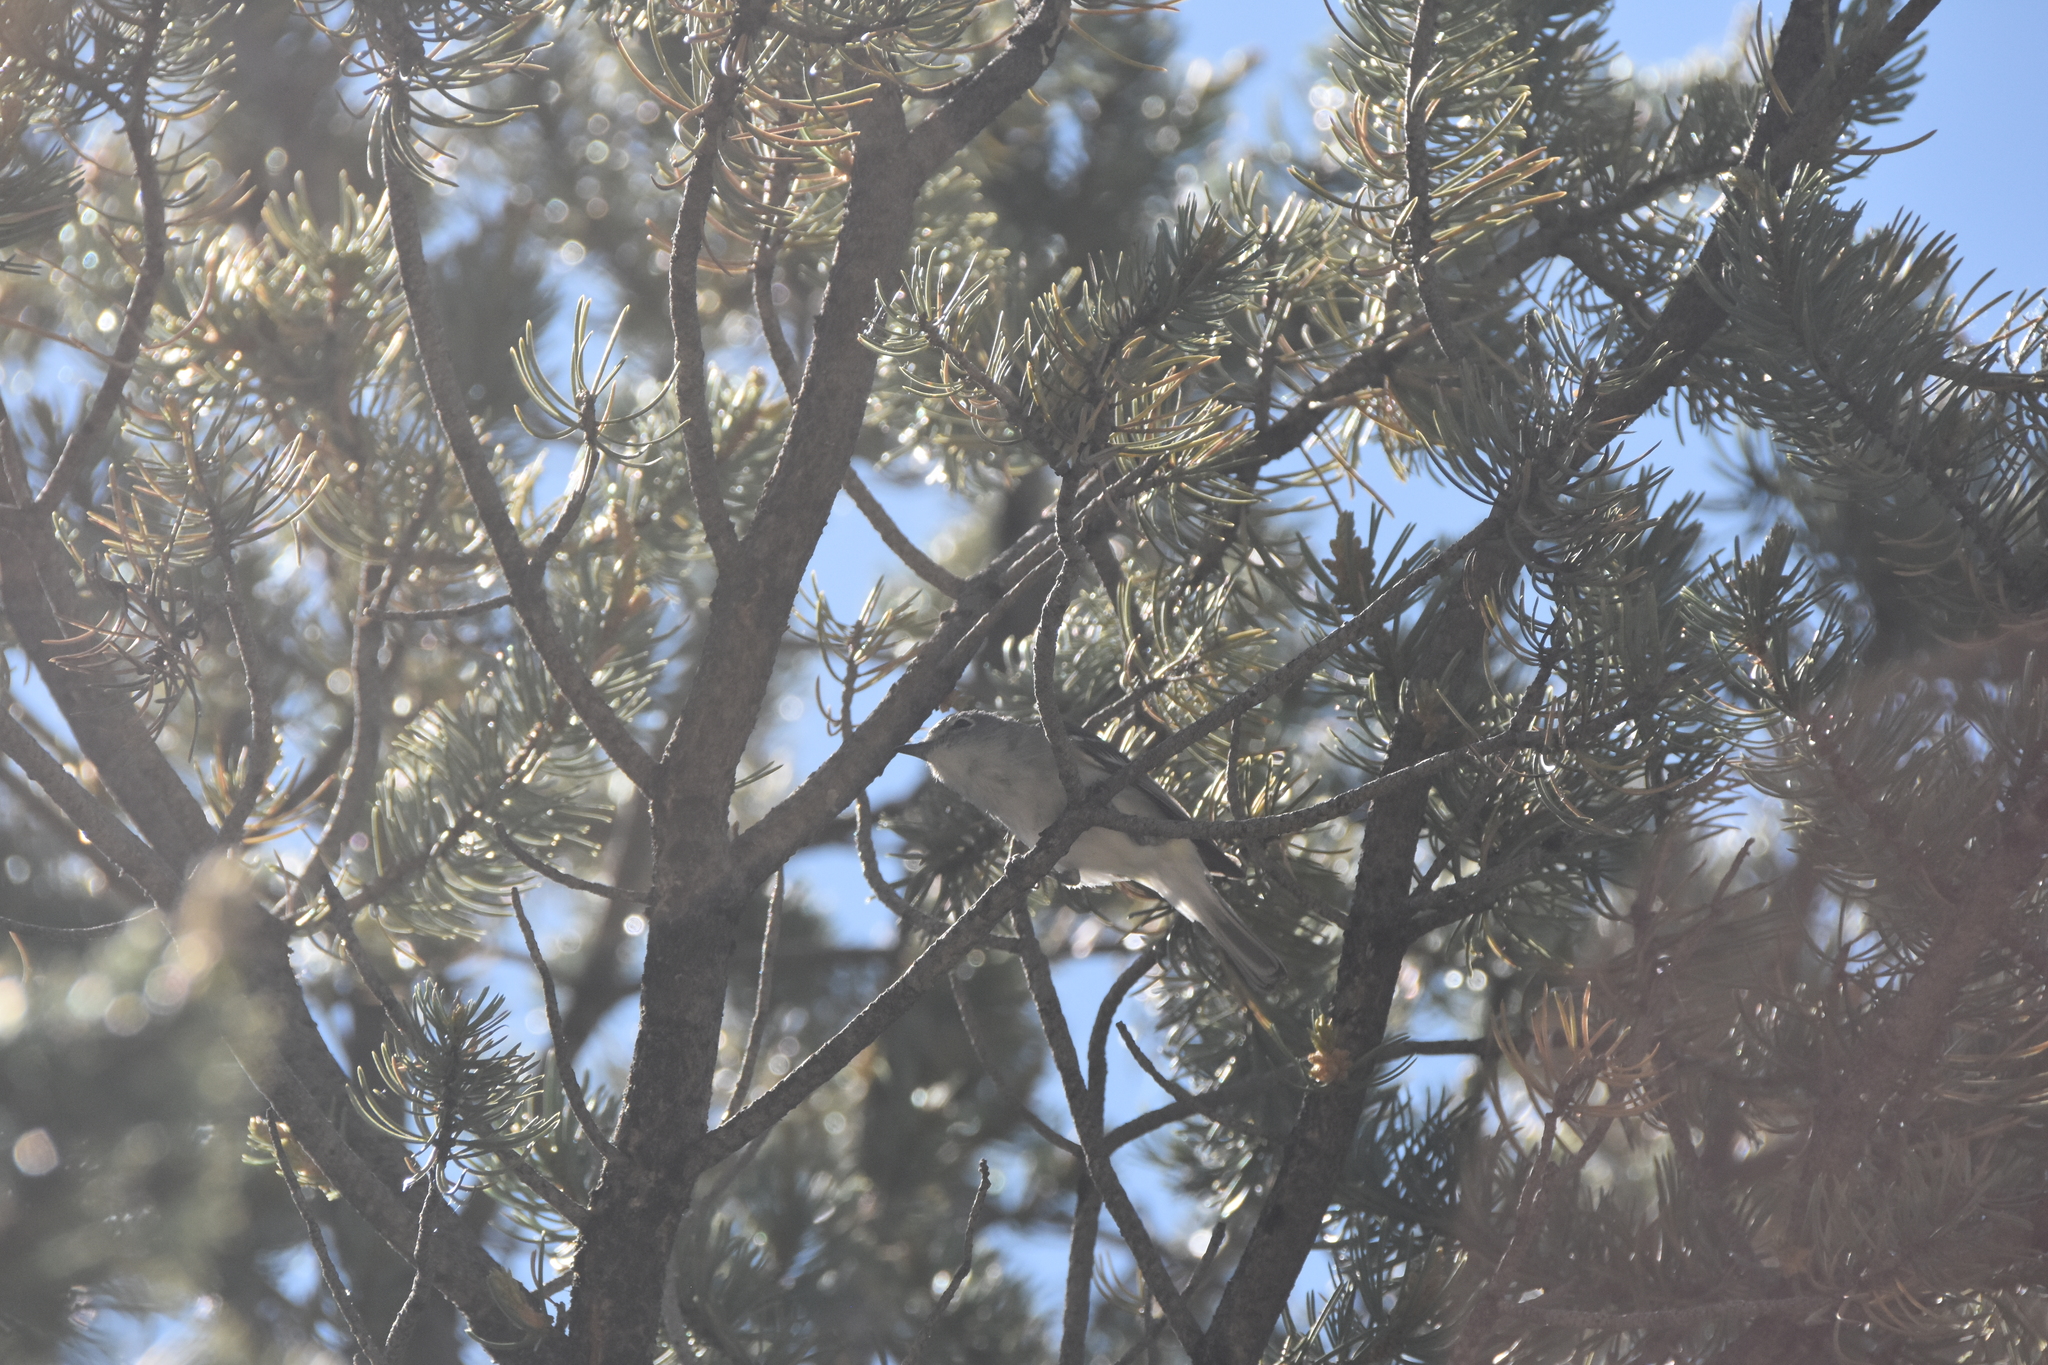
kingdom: Animalia
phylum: Chordata
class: Aves
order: Passeriformes
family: Vireonidae
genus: Vireo
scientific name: Vireo plumbeus
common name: Plumbeous vireo
